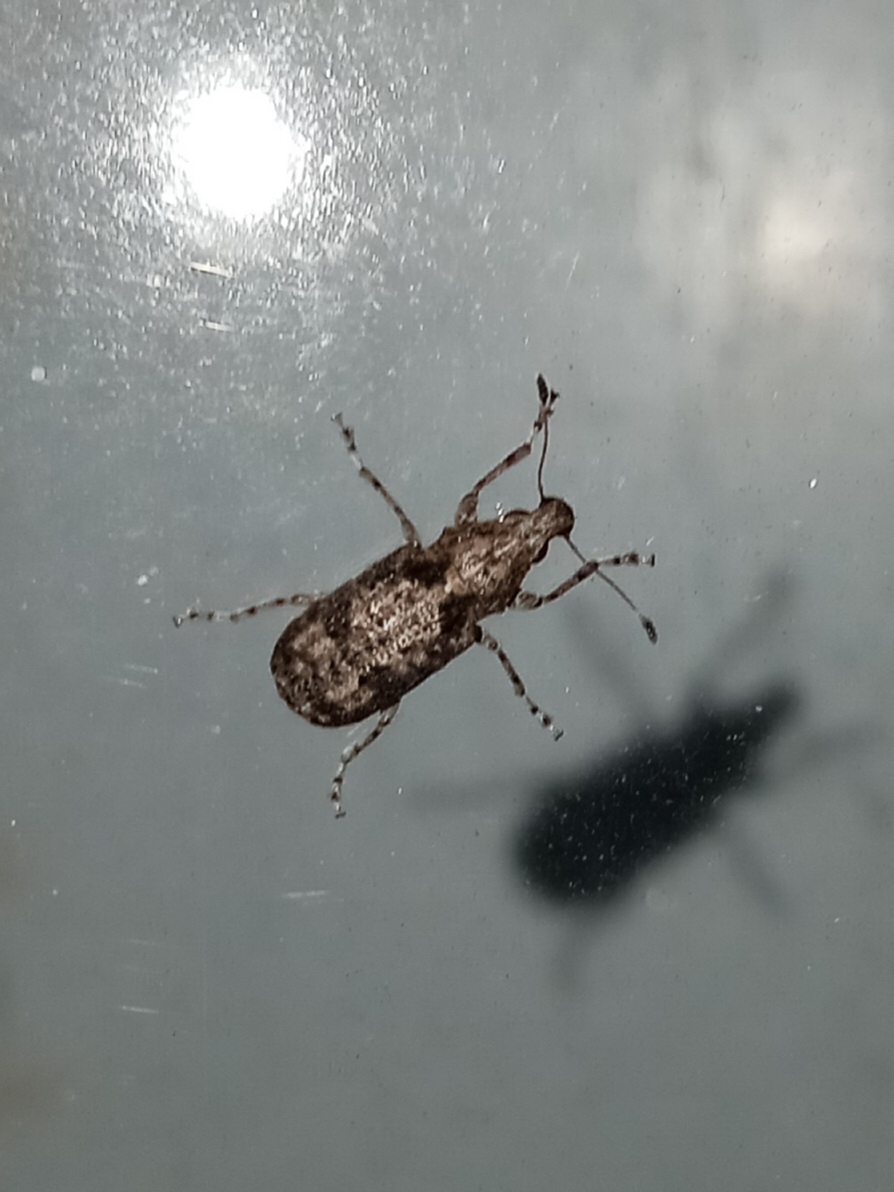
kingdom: Animalia
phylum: Arthropoda
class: Insecta
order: Coleoptera
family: Anthribidae
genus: Meconemus
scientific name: Meconemus infuscatus
